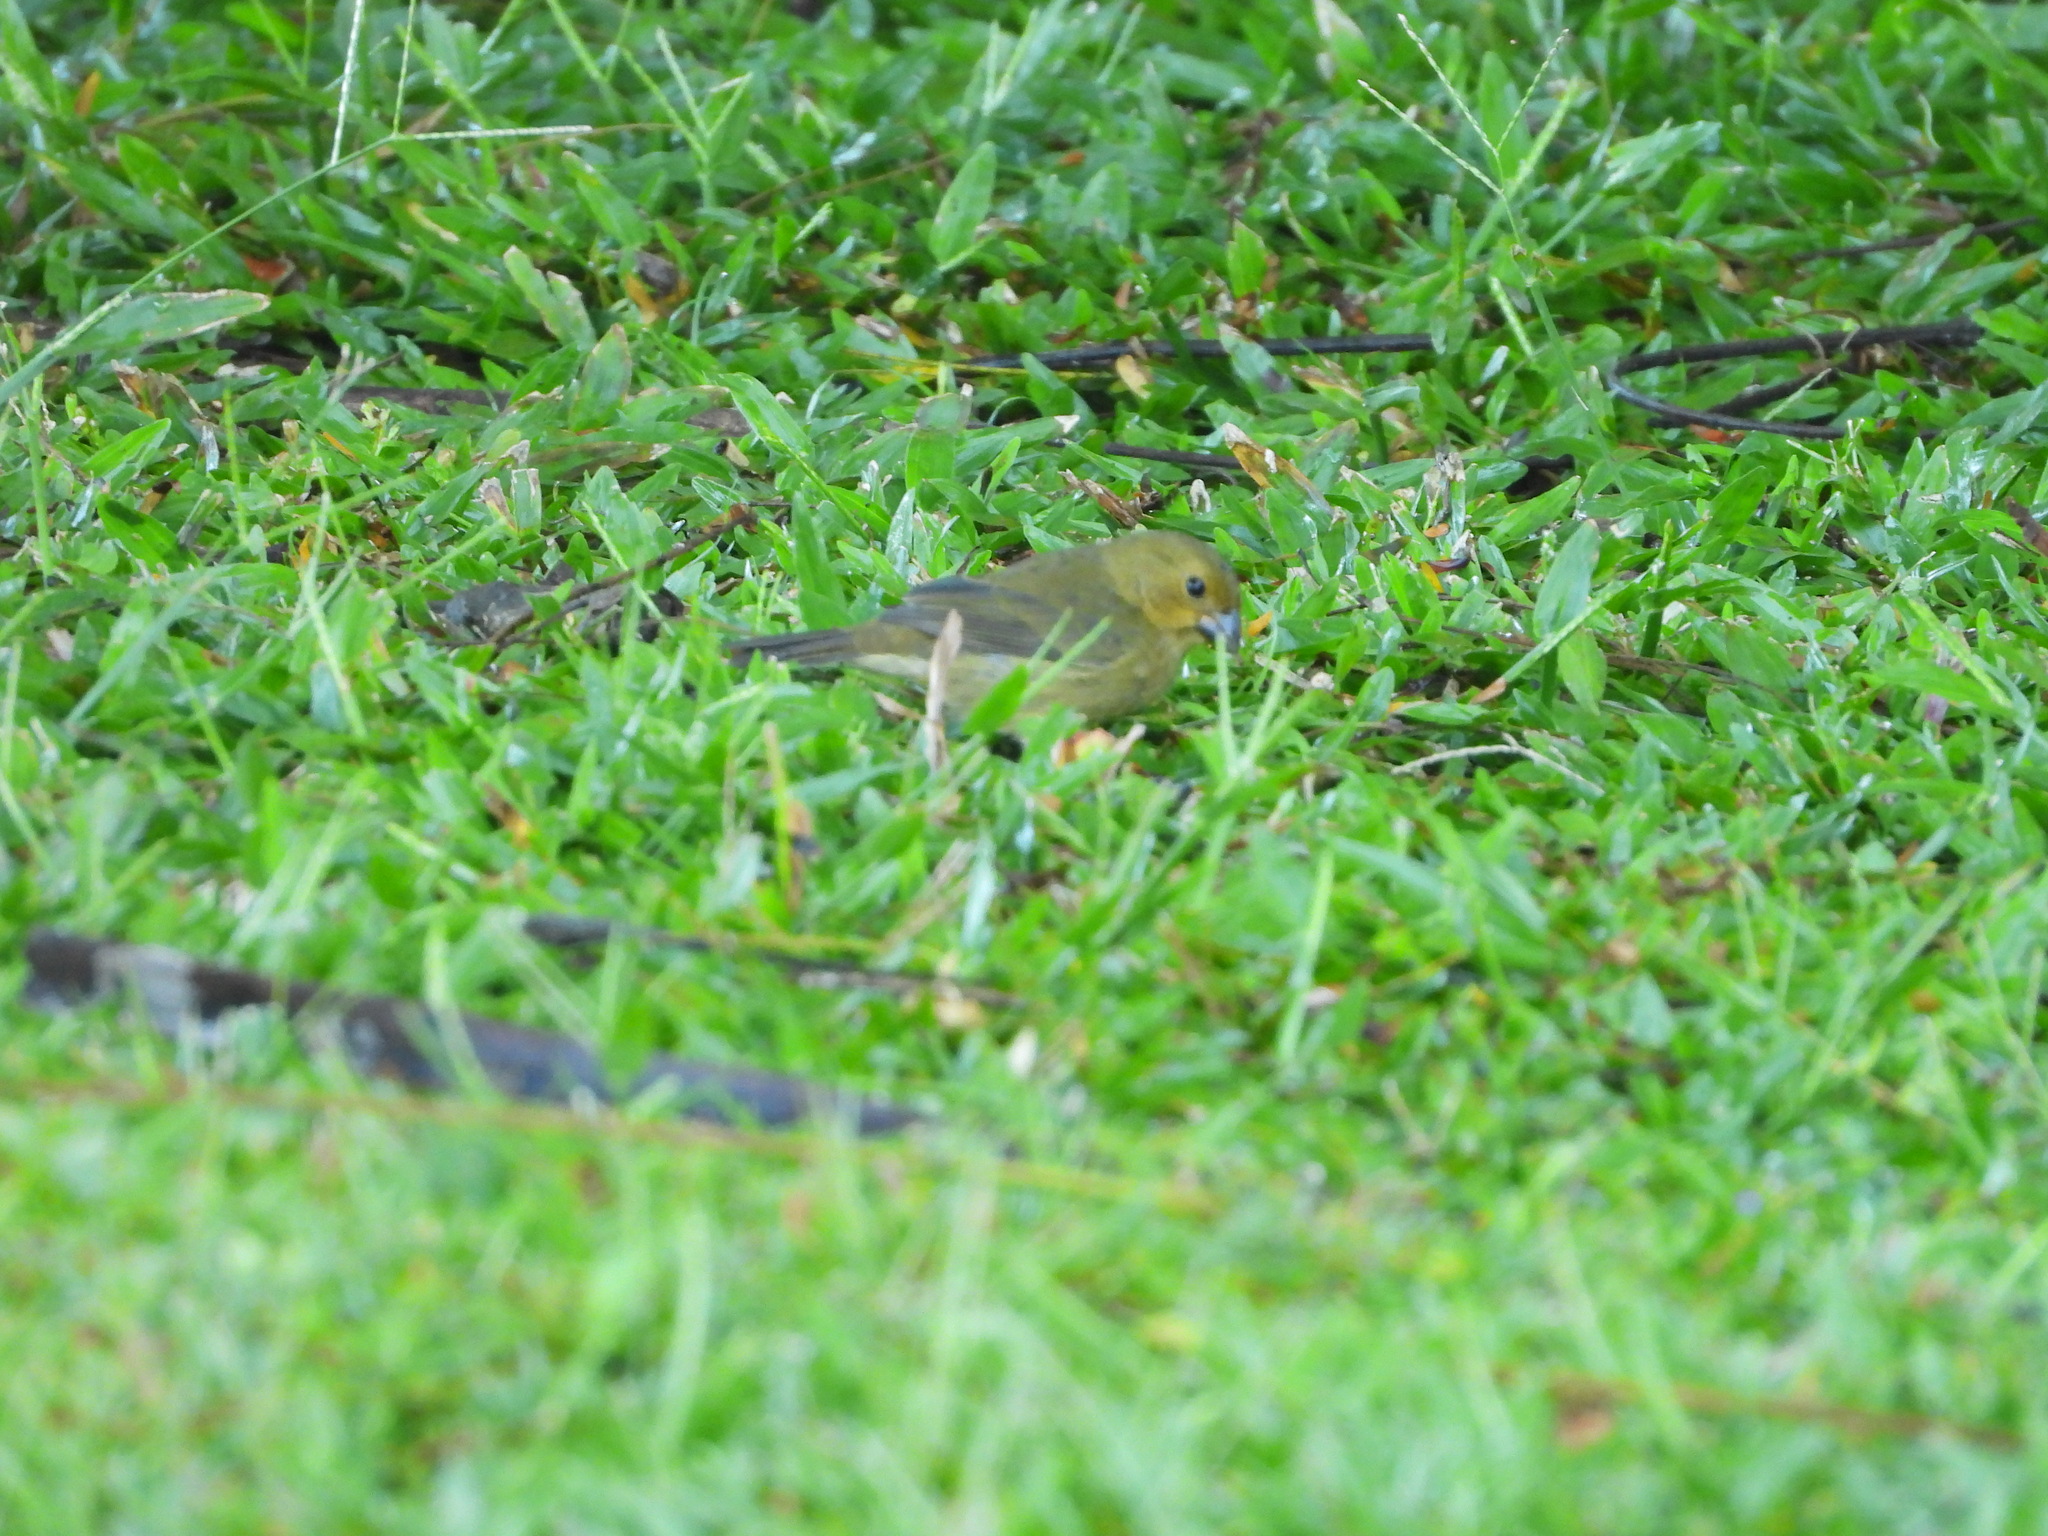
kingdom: Animalia
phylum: Chordata
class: Aves
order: Passeriformes
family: Thraupidae
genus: Sporophila
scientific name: Sporophila corvina
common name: Variable seedeater
